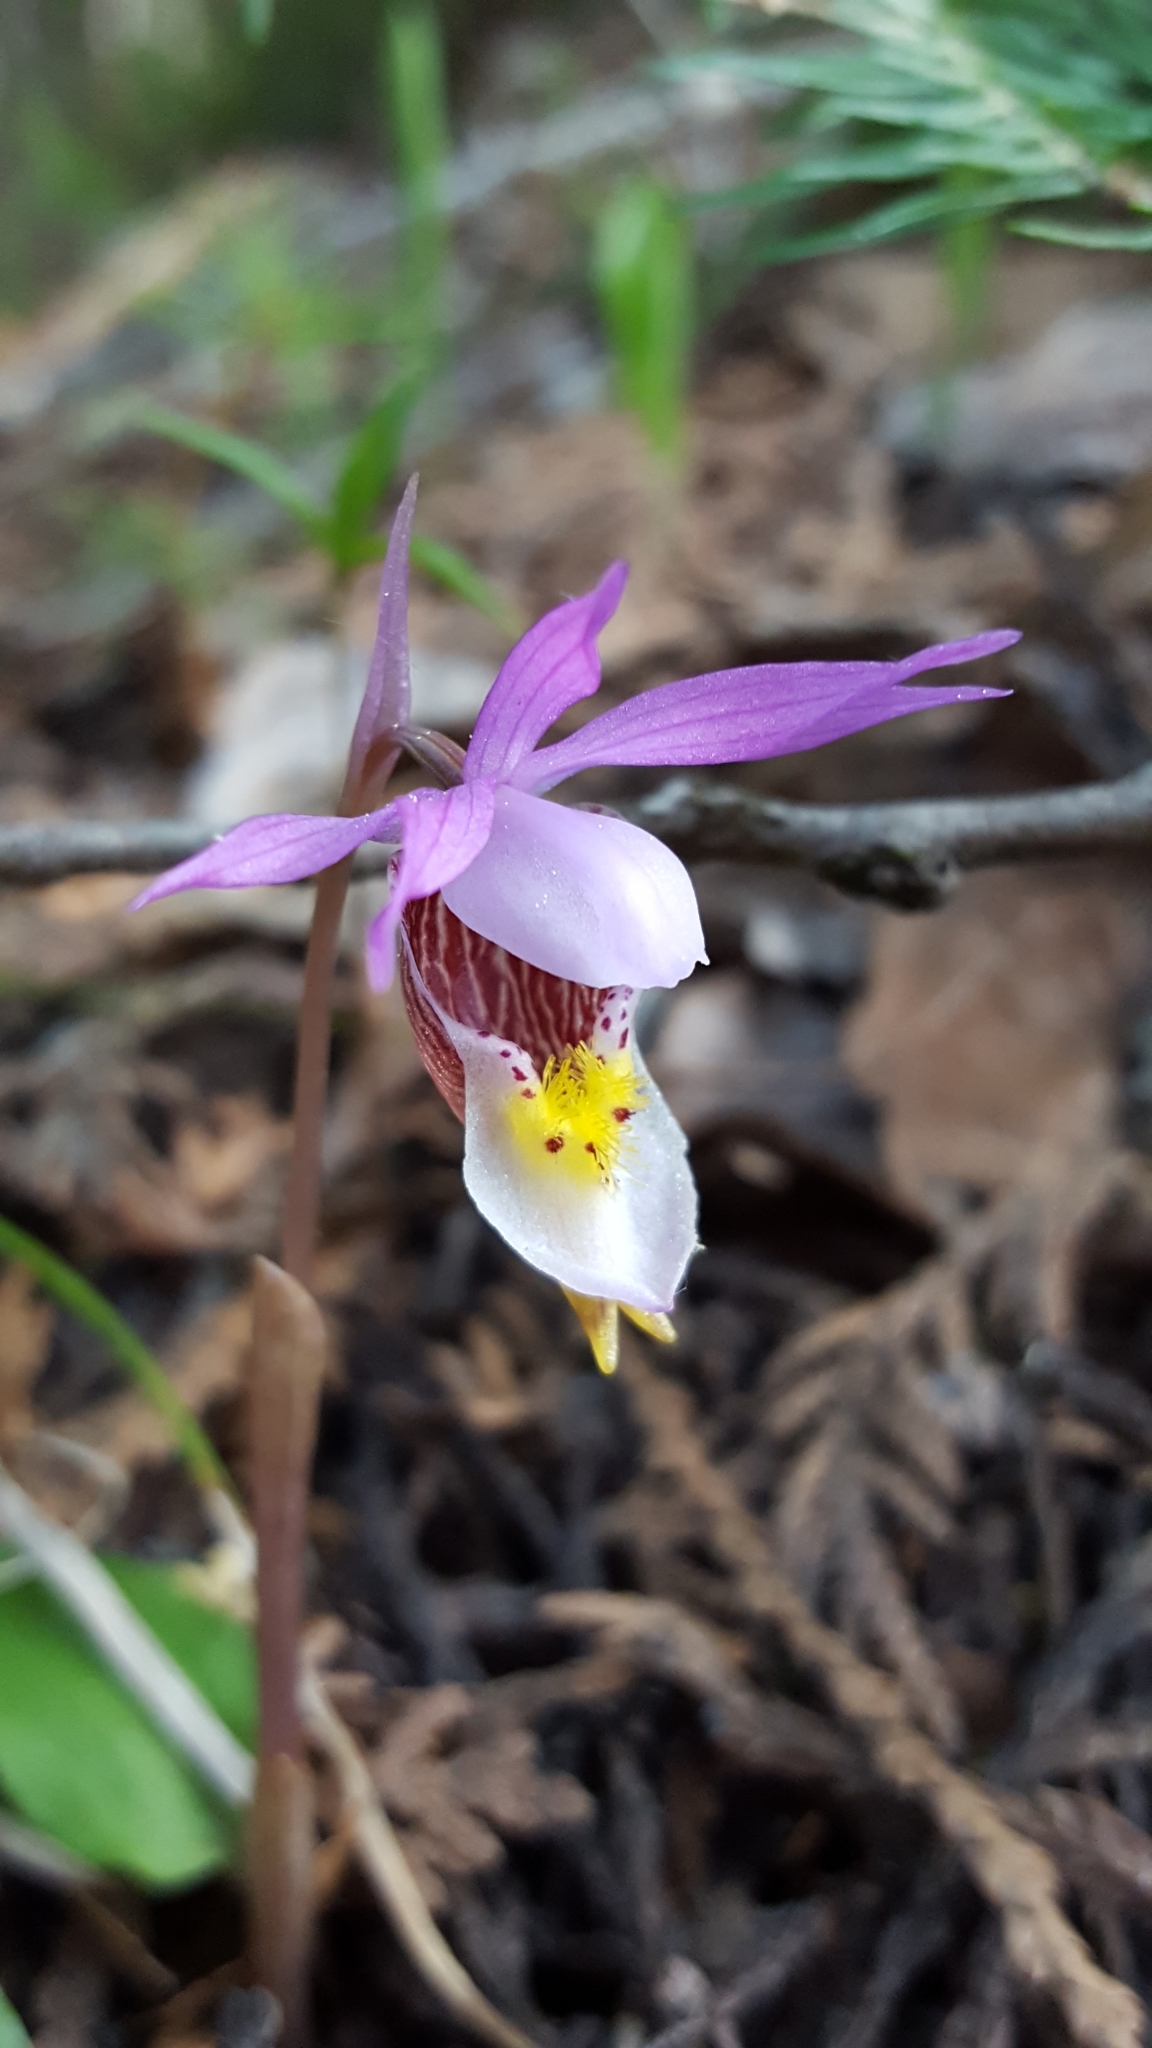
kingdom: Plantae
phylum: Tracheophyta
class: Liliopsida
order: Asparagales
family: Orchidaceae
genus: Calypso
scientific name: Calypso bulbosa
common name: Calypso
